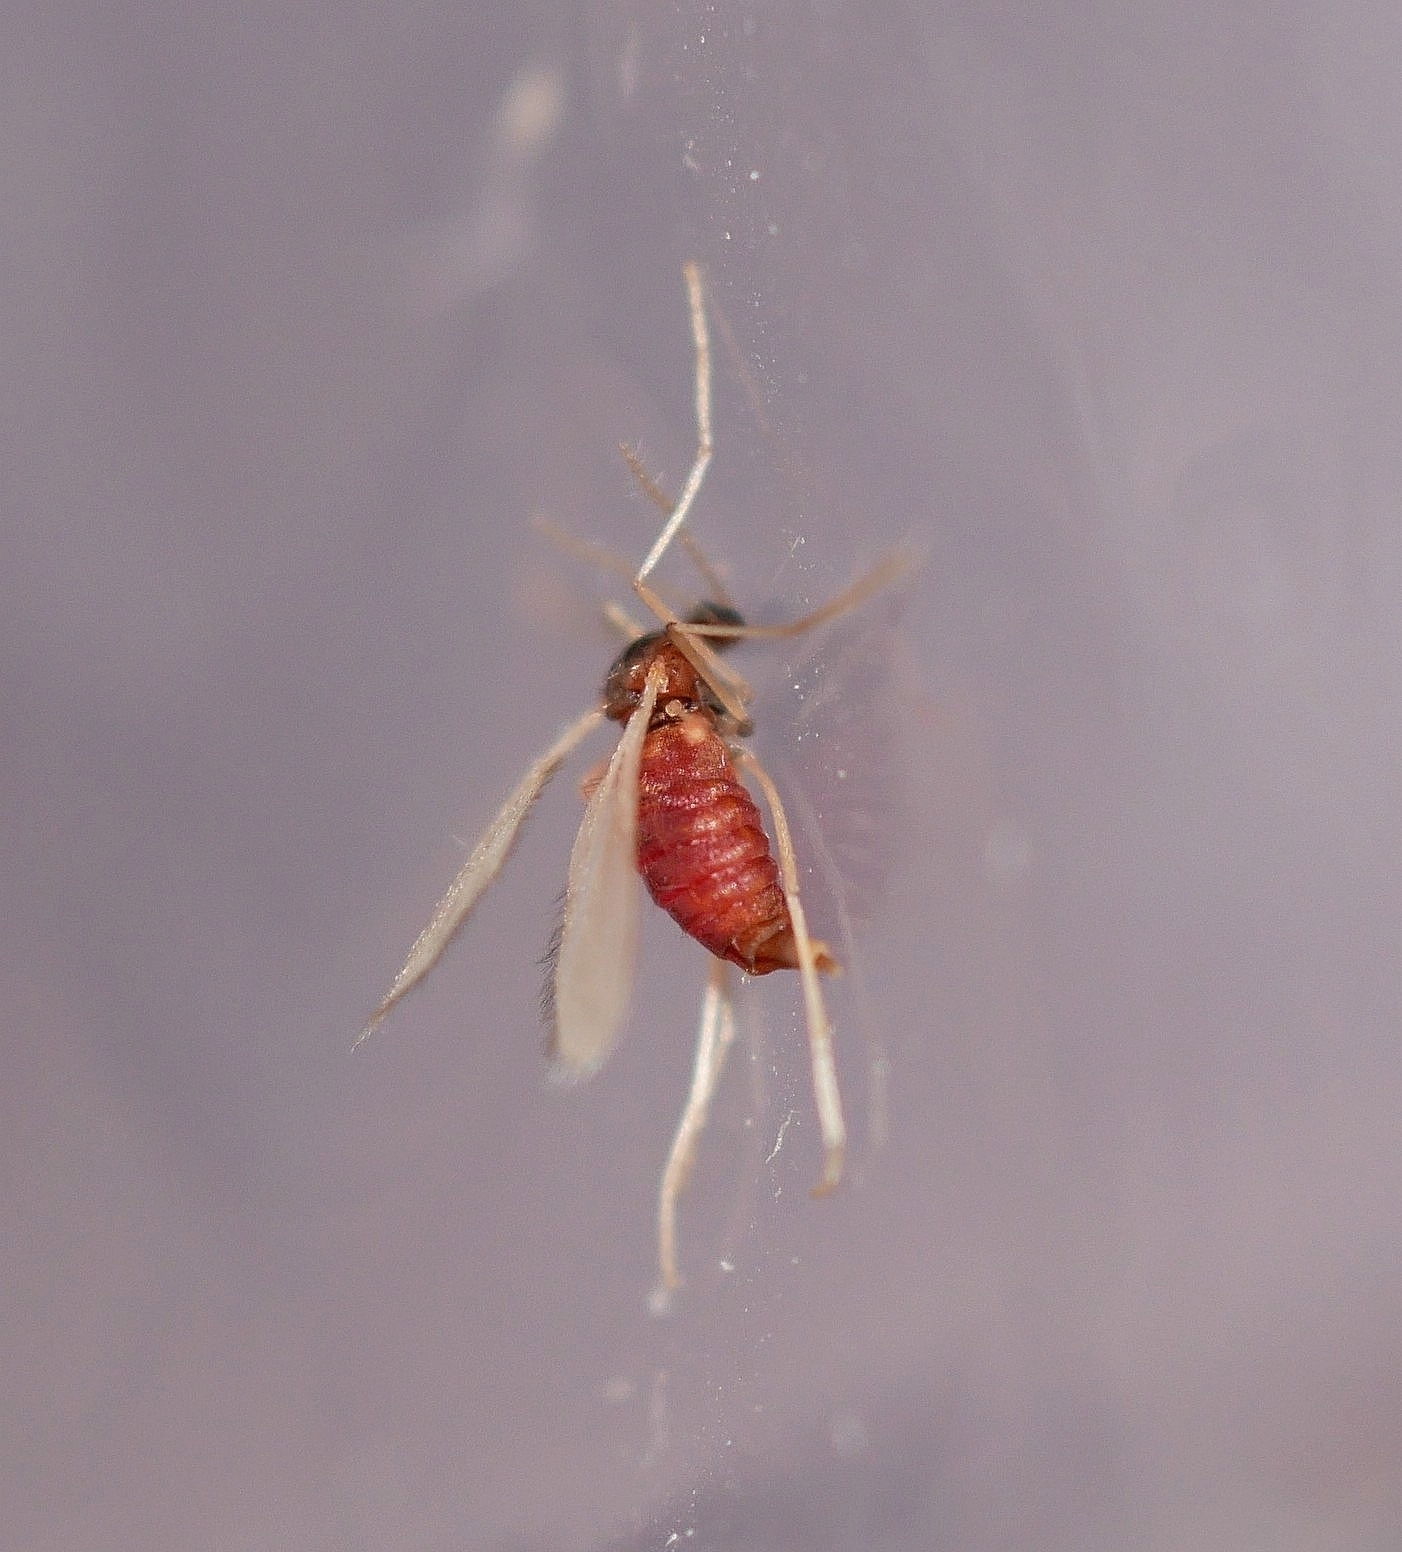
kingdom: Animalia
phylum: Arthropoda
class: Insecta
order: Diptera
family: Cecidomyiidae
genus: Rhopalomyia
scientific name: Rhopalomyia pomum
